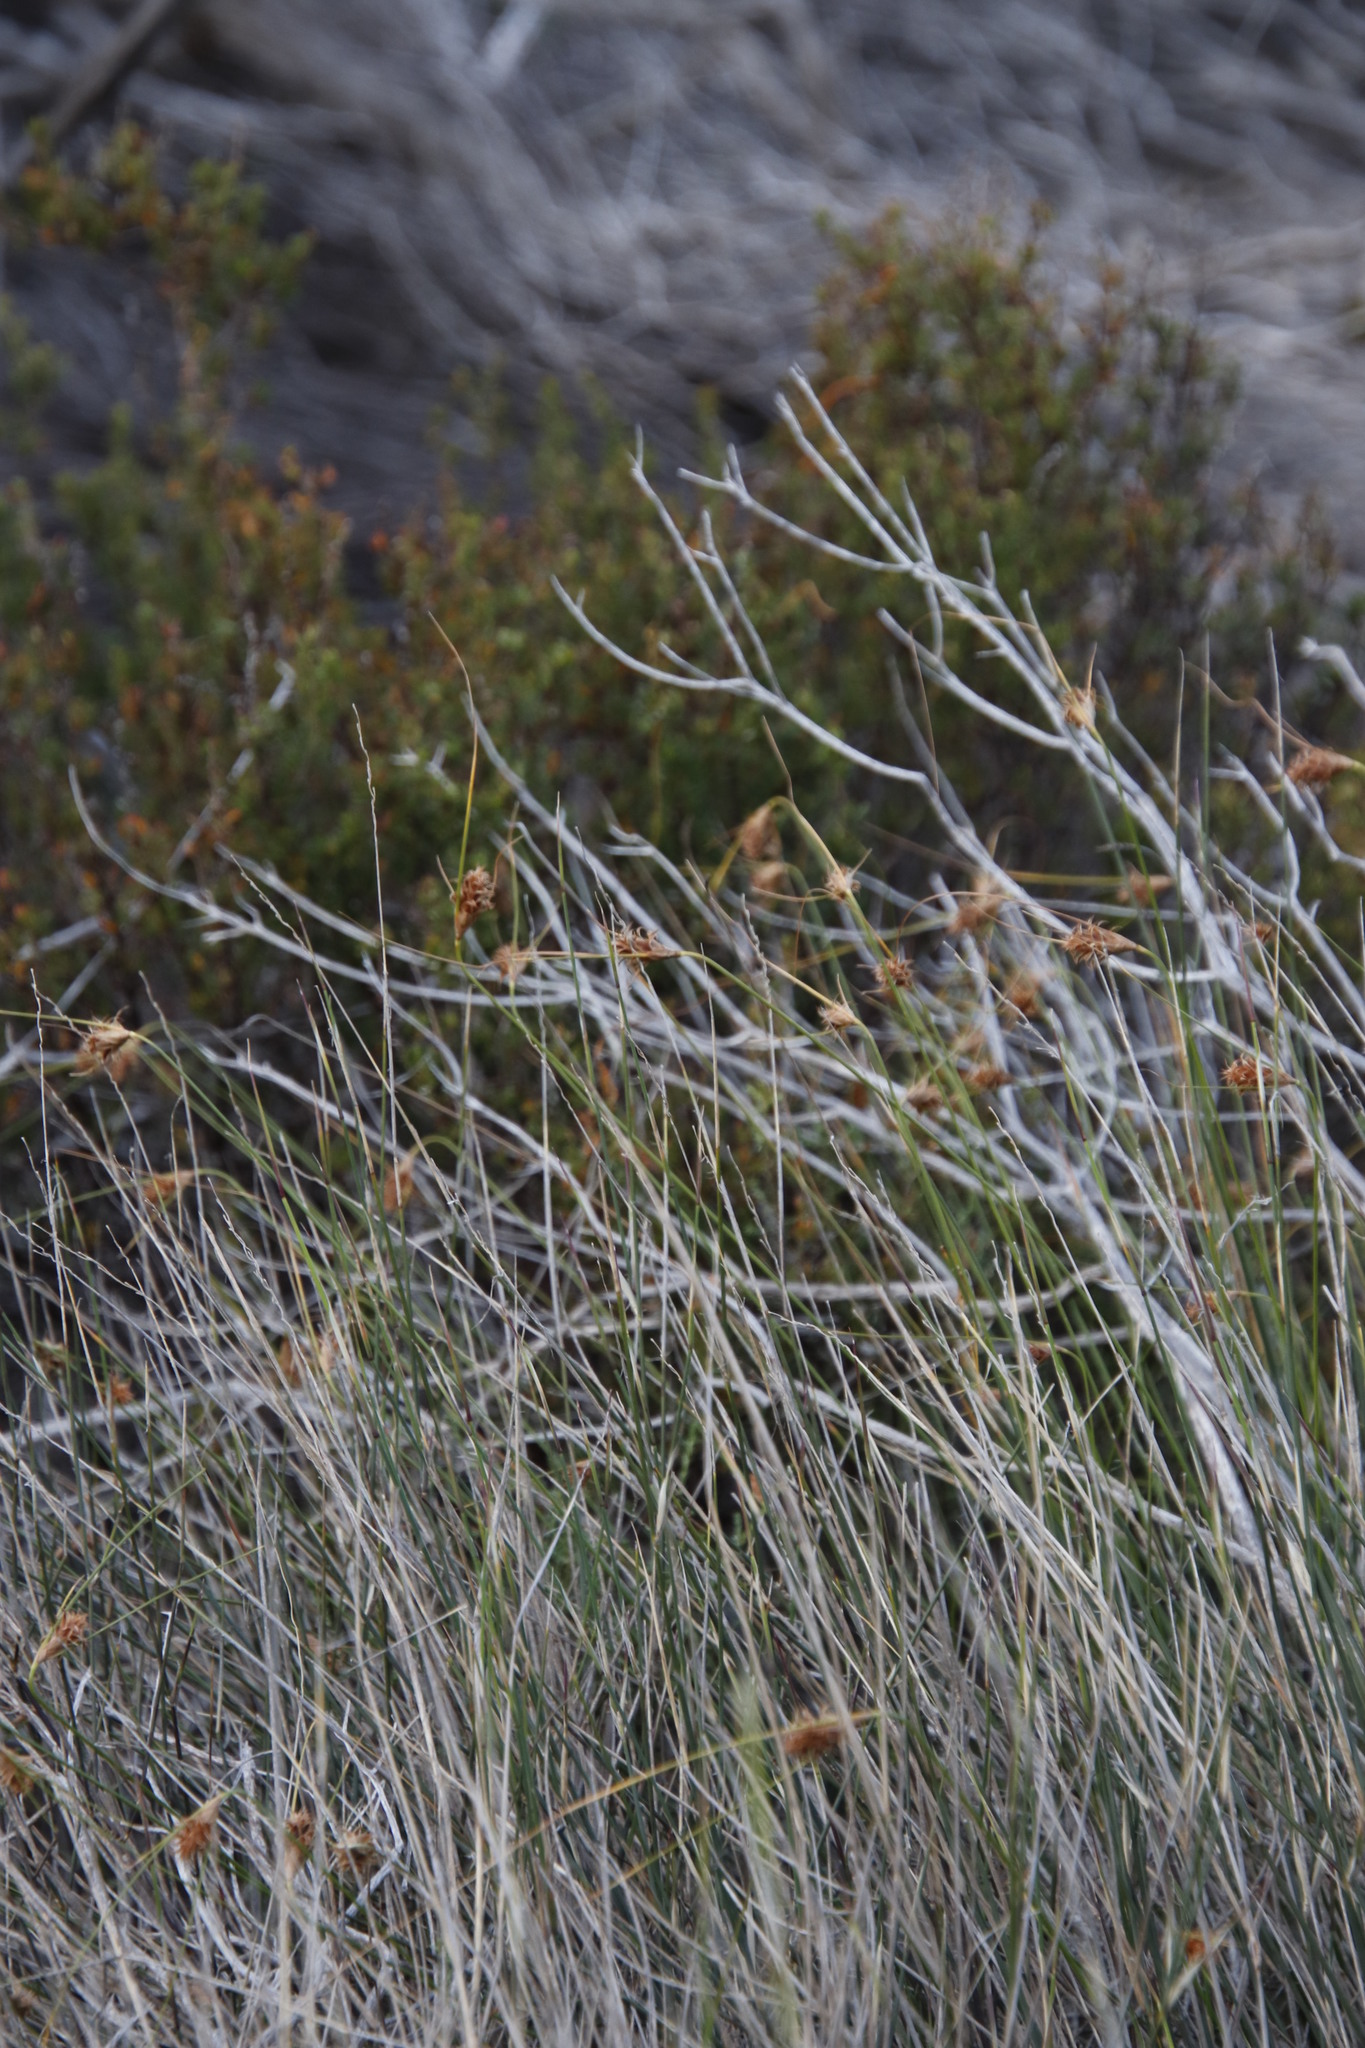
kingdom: Plantae
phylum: Tracheophyta
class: Liliopsida
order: Poales
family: Cyperaceae
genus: Ficinia
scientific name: Ficinia nigrescens
